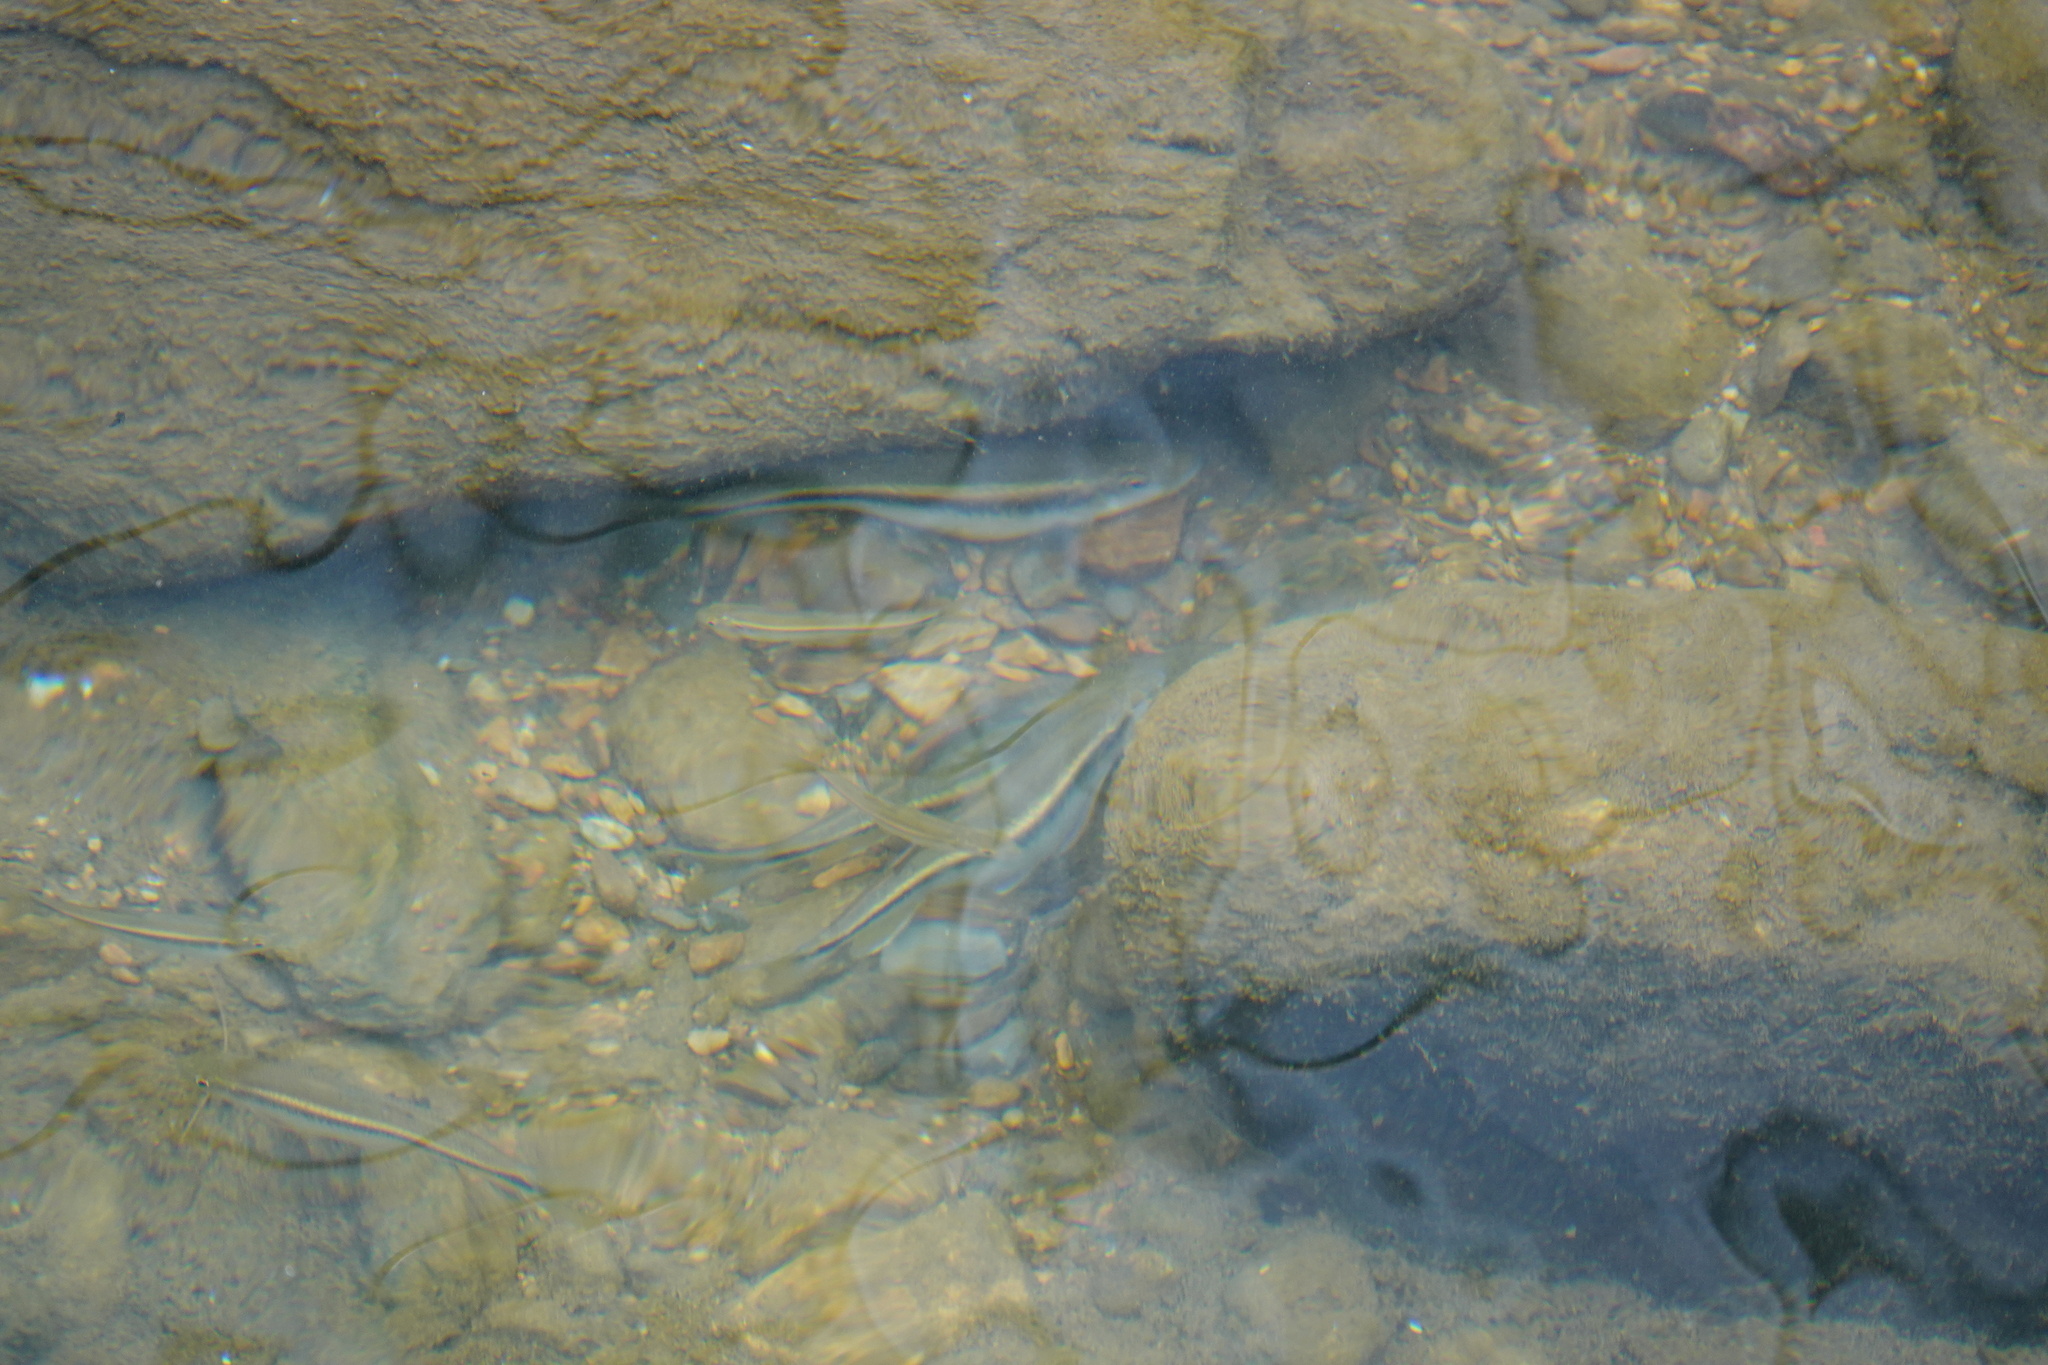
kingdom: Animalia
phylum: Chordata
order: Cypriniformes
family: Cyprinidae
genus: Candidia
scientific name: Candidia barbata
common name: Lake candidus dace
